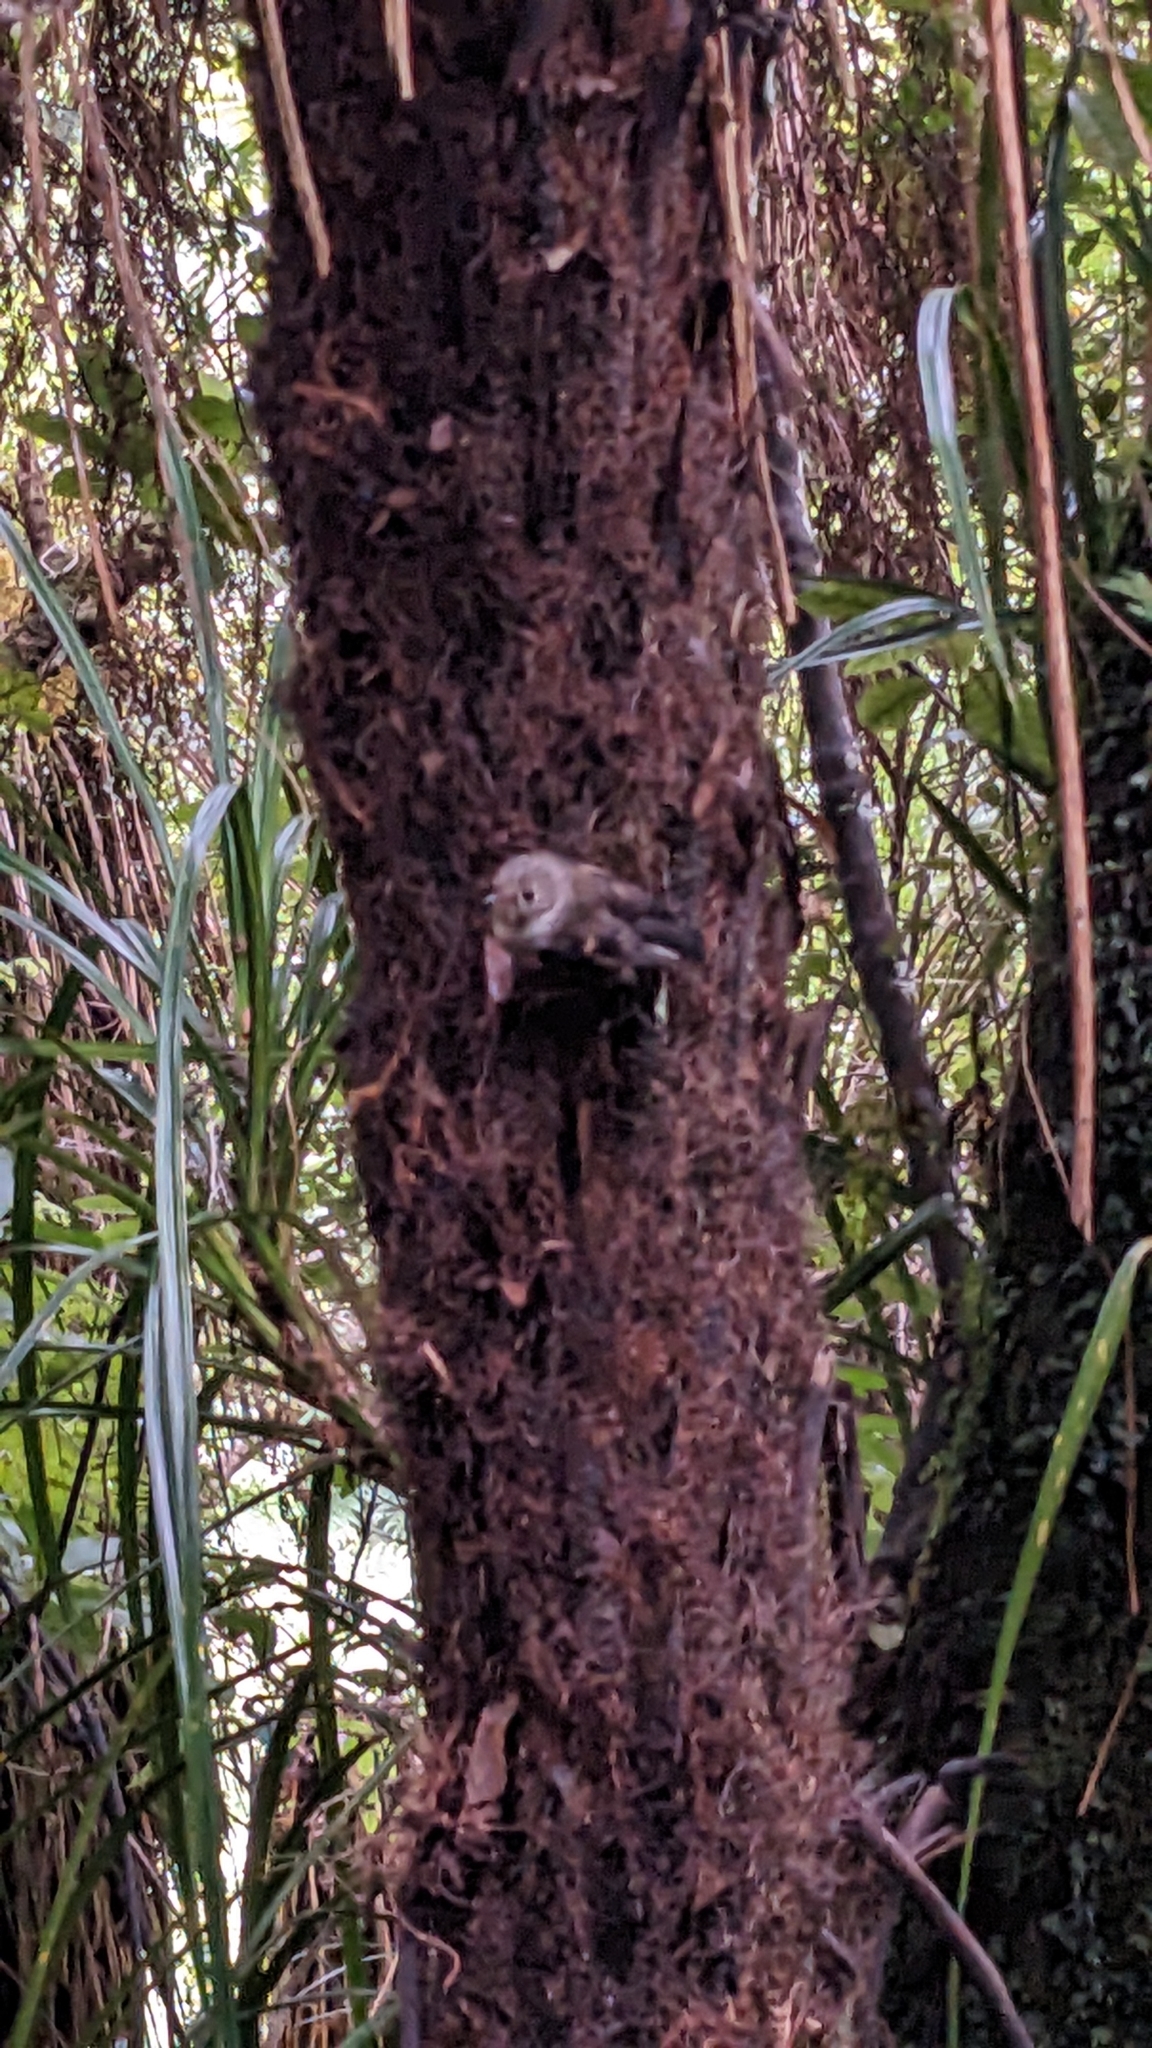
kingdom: Animalia
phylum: Chordata
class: Aves
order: Passeriformes
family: Petroicidae
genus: Petroica
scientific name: Petroica macrocephala
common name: Tomtit
